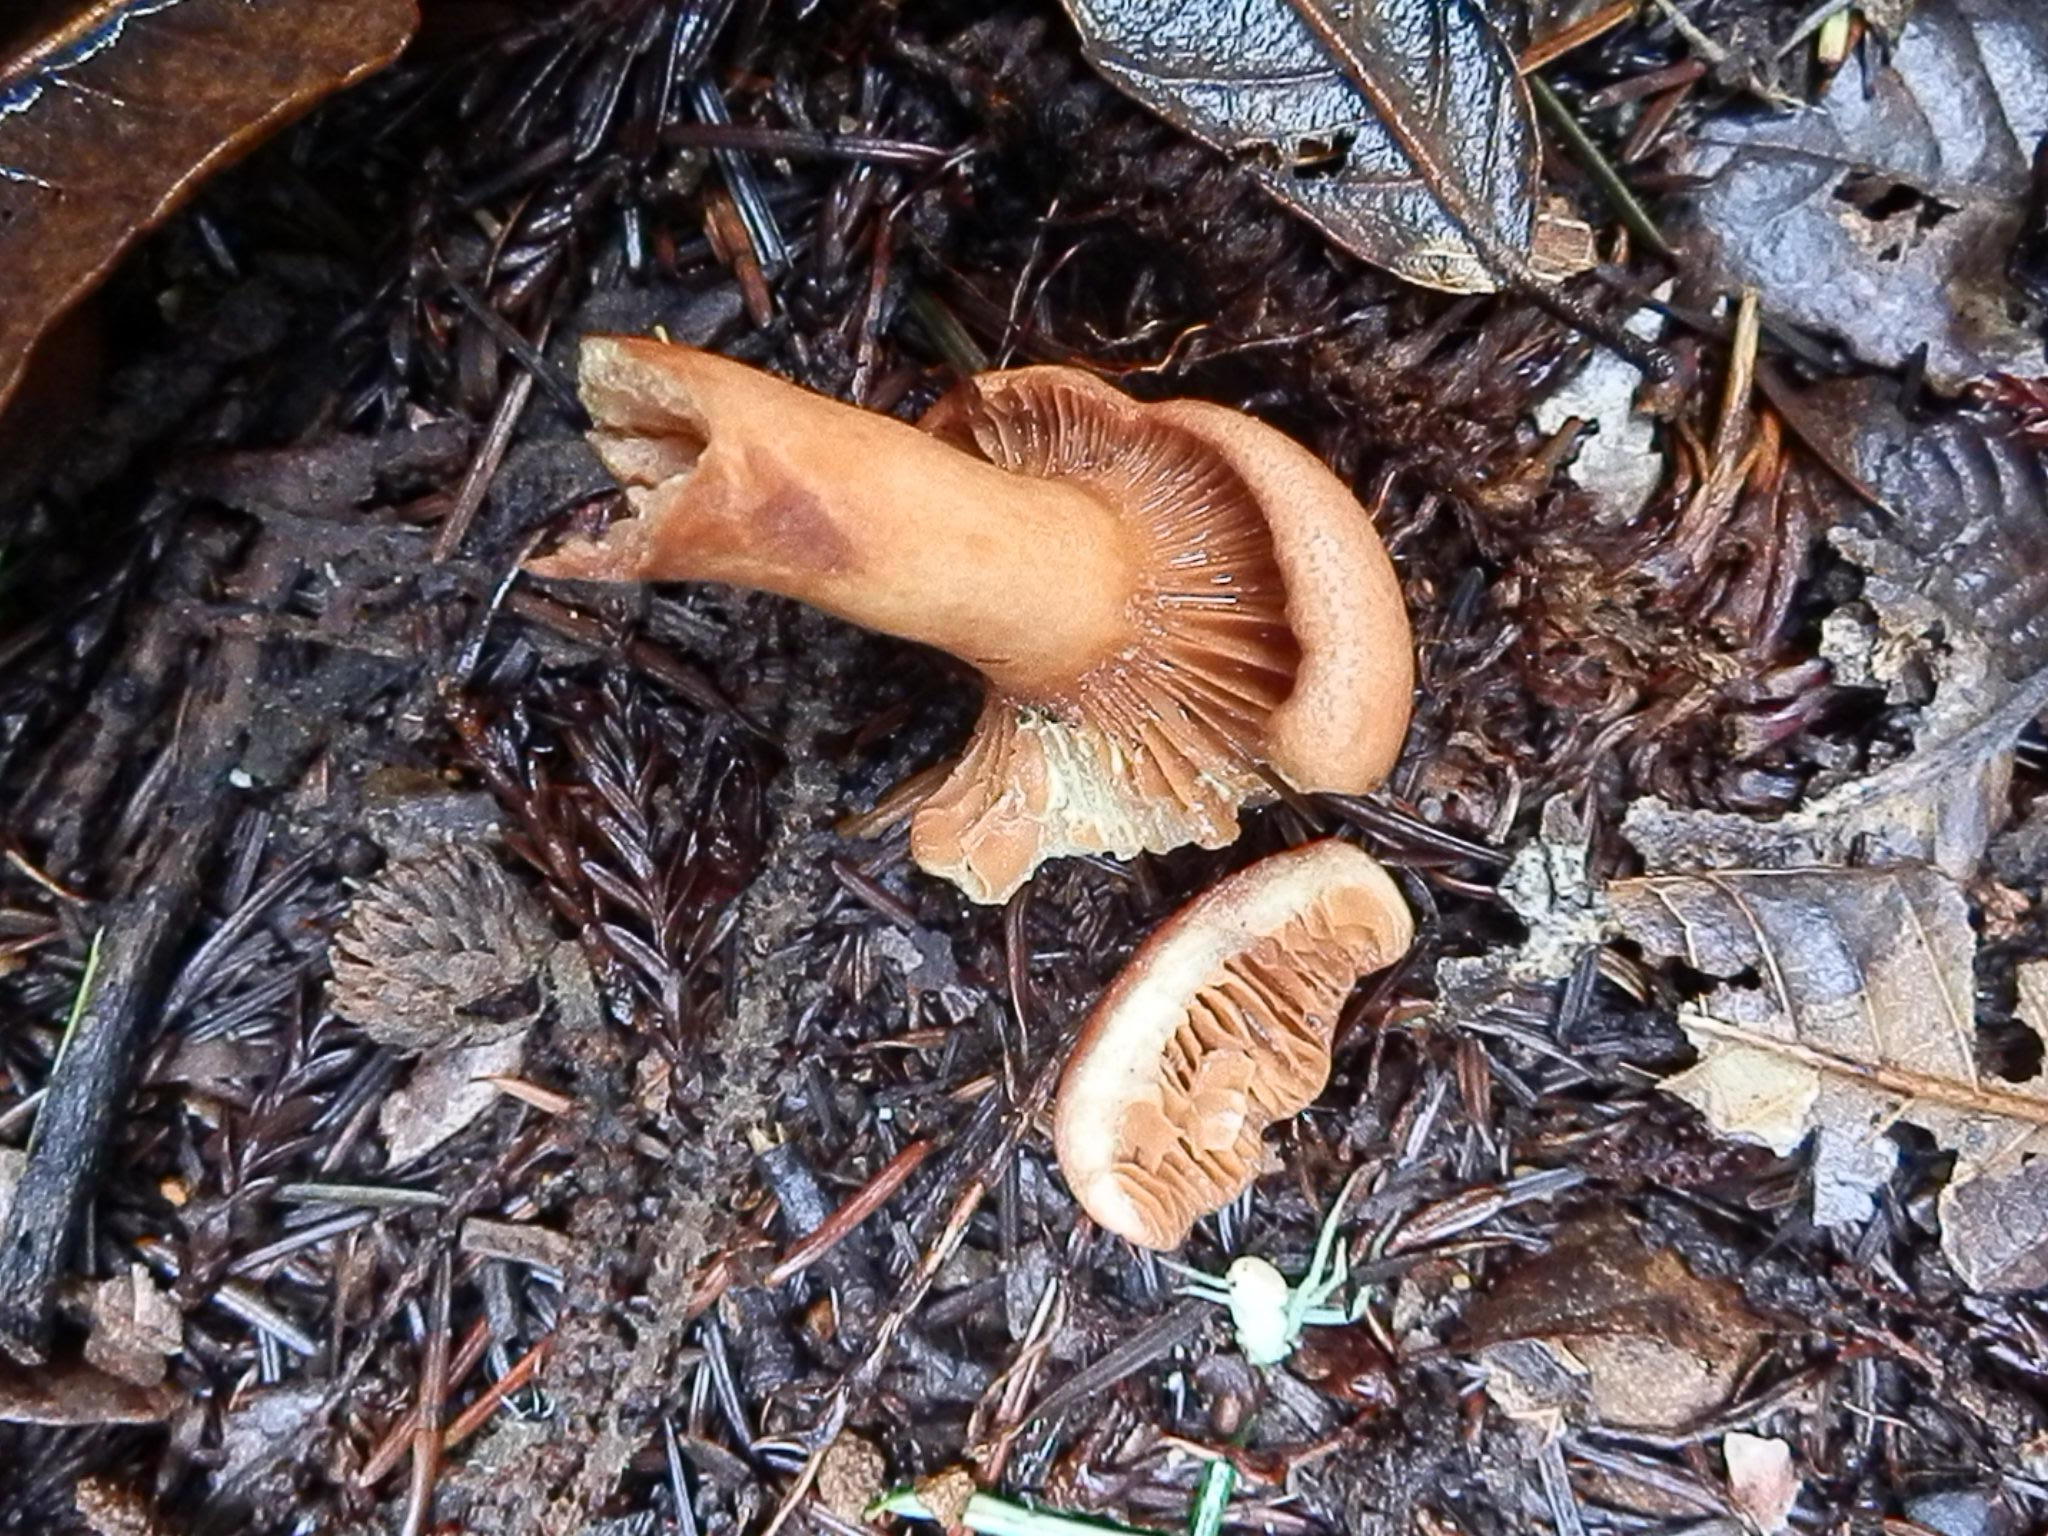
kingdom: Fungi
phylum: Basidiomycota
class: Agaricomycetes
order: Russulales
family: Russulaceae
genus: Lactarius
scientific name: Lactarius rufulus
